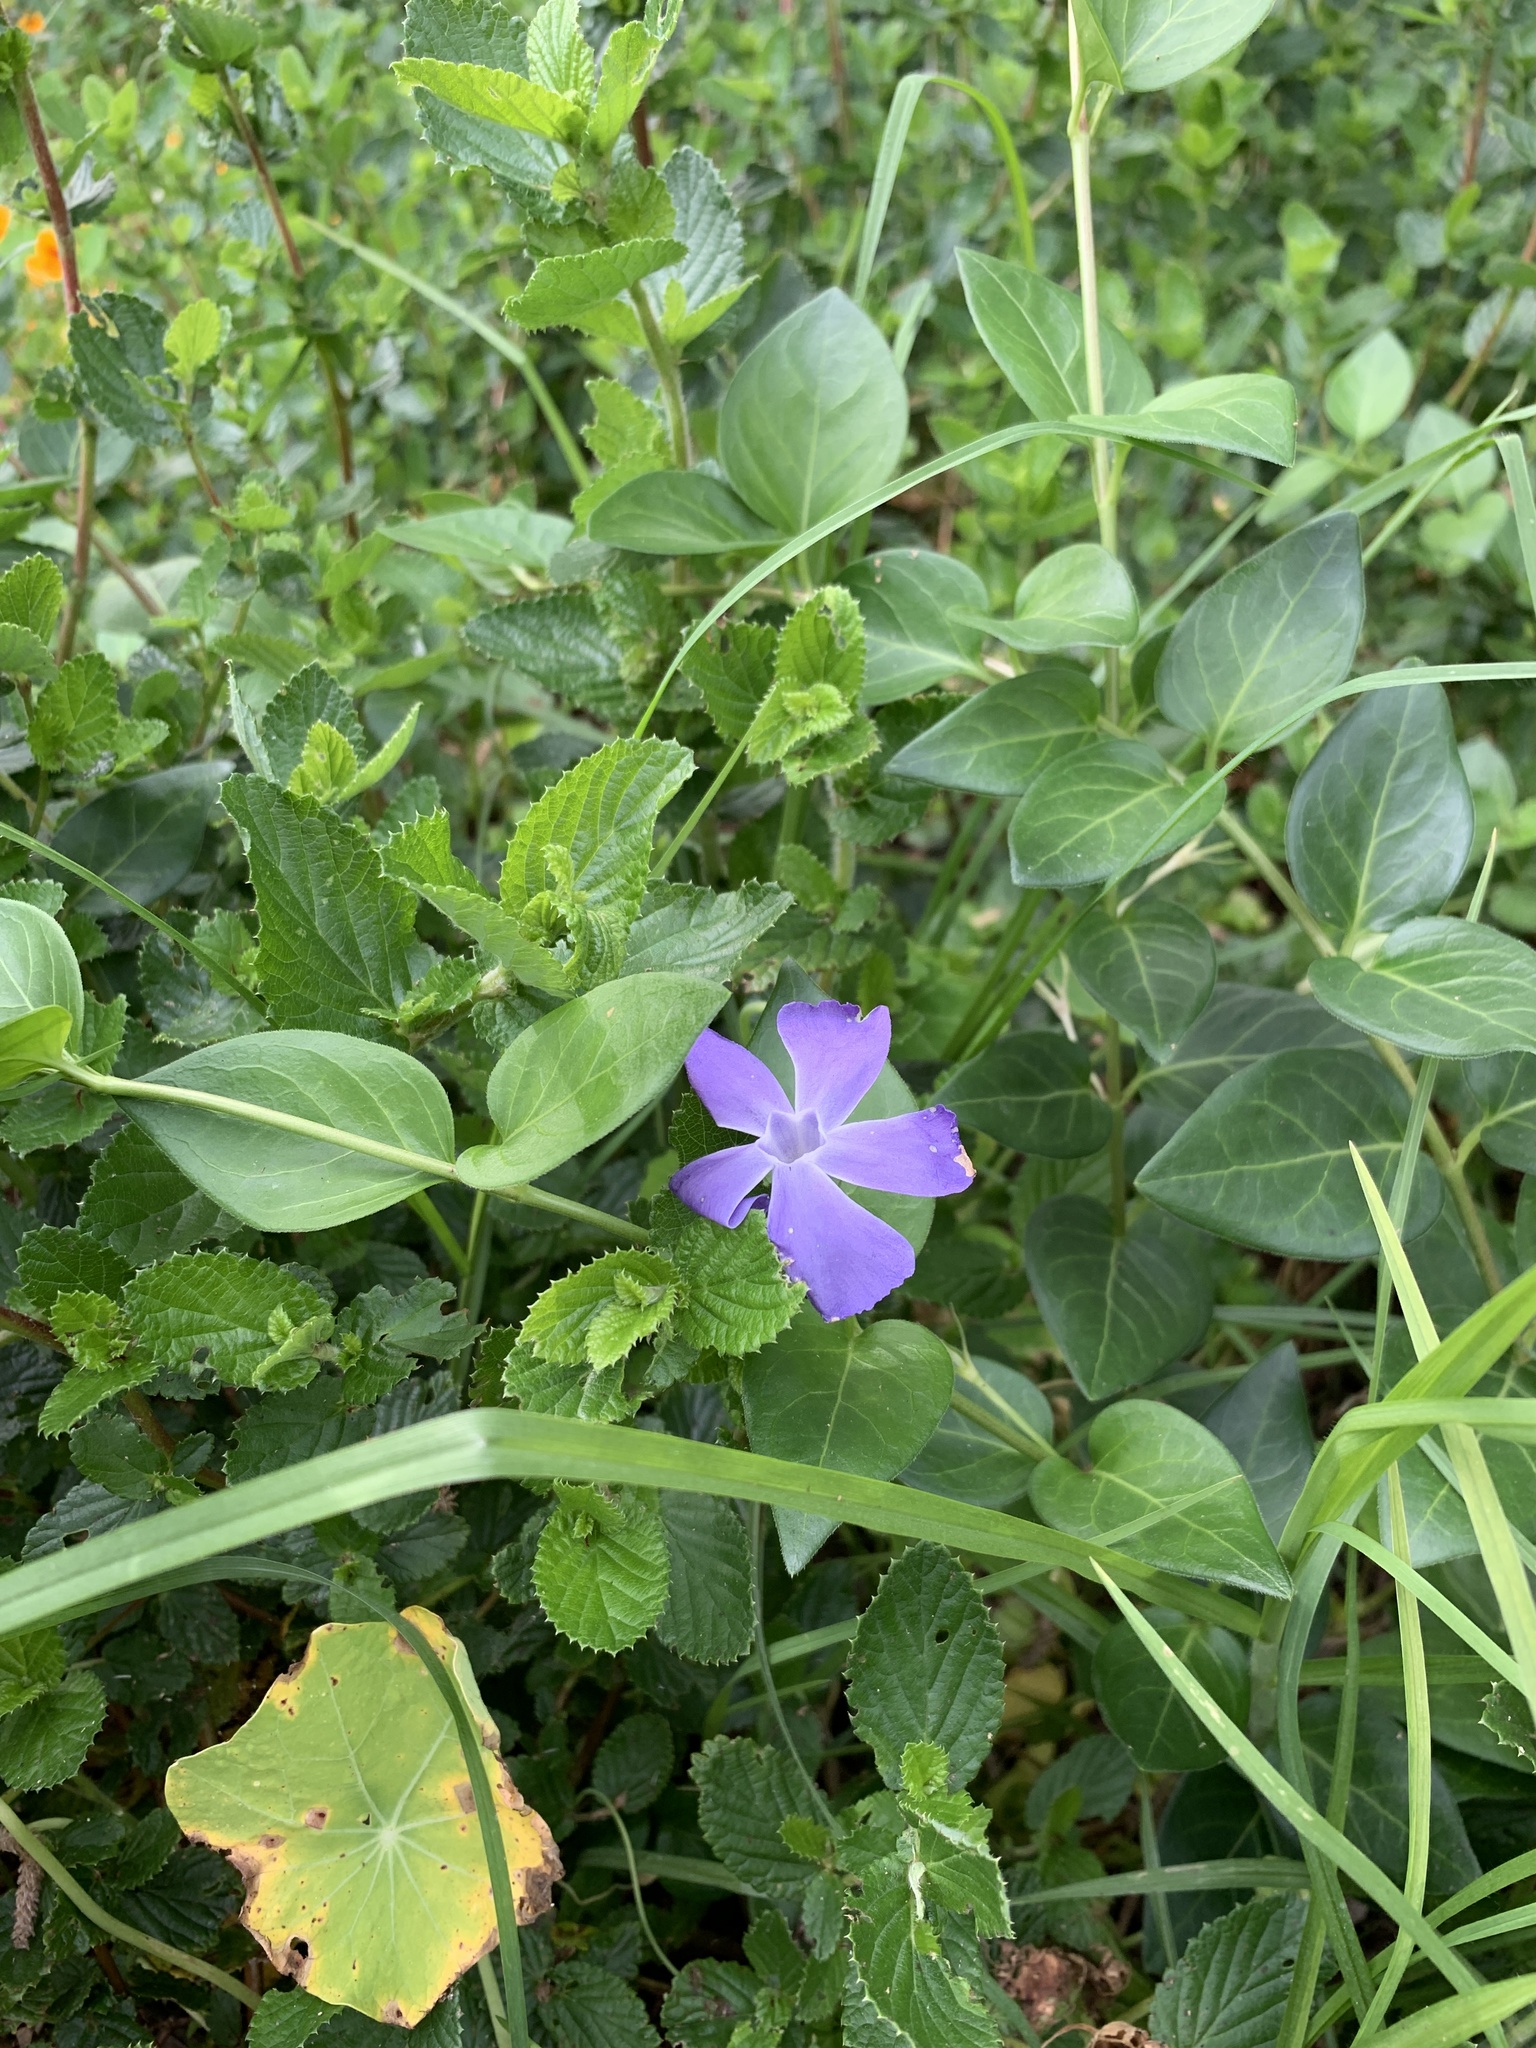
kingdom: Plantae
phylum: Tracheophyta
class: Magnoliopsida
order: Gentianales
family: Apocynaceae
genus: Vinca
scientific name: Vinca major
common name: Greater periwinkle
